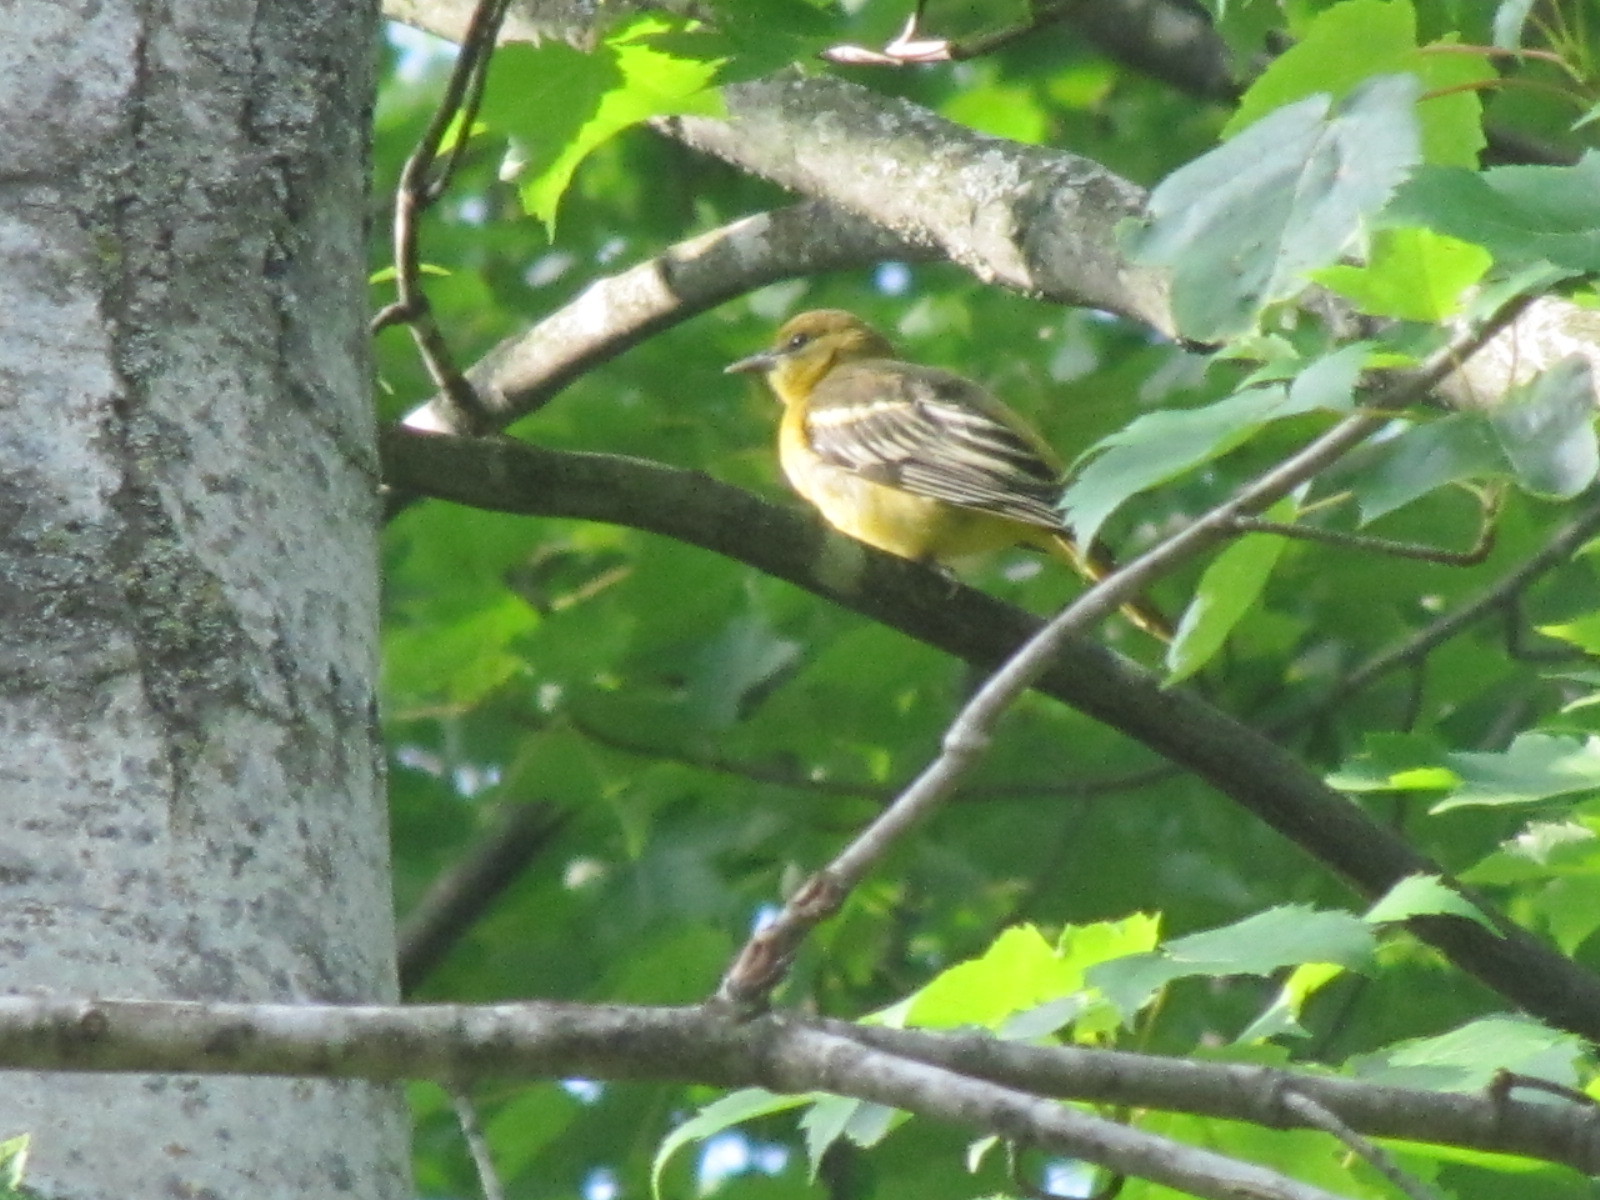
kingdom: Animalia
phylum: Chordata
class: Aves
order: Passeriformes
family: Icteridae
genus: Icterus
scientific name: Icterus galbula
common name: Baltimore oriole
